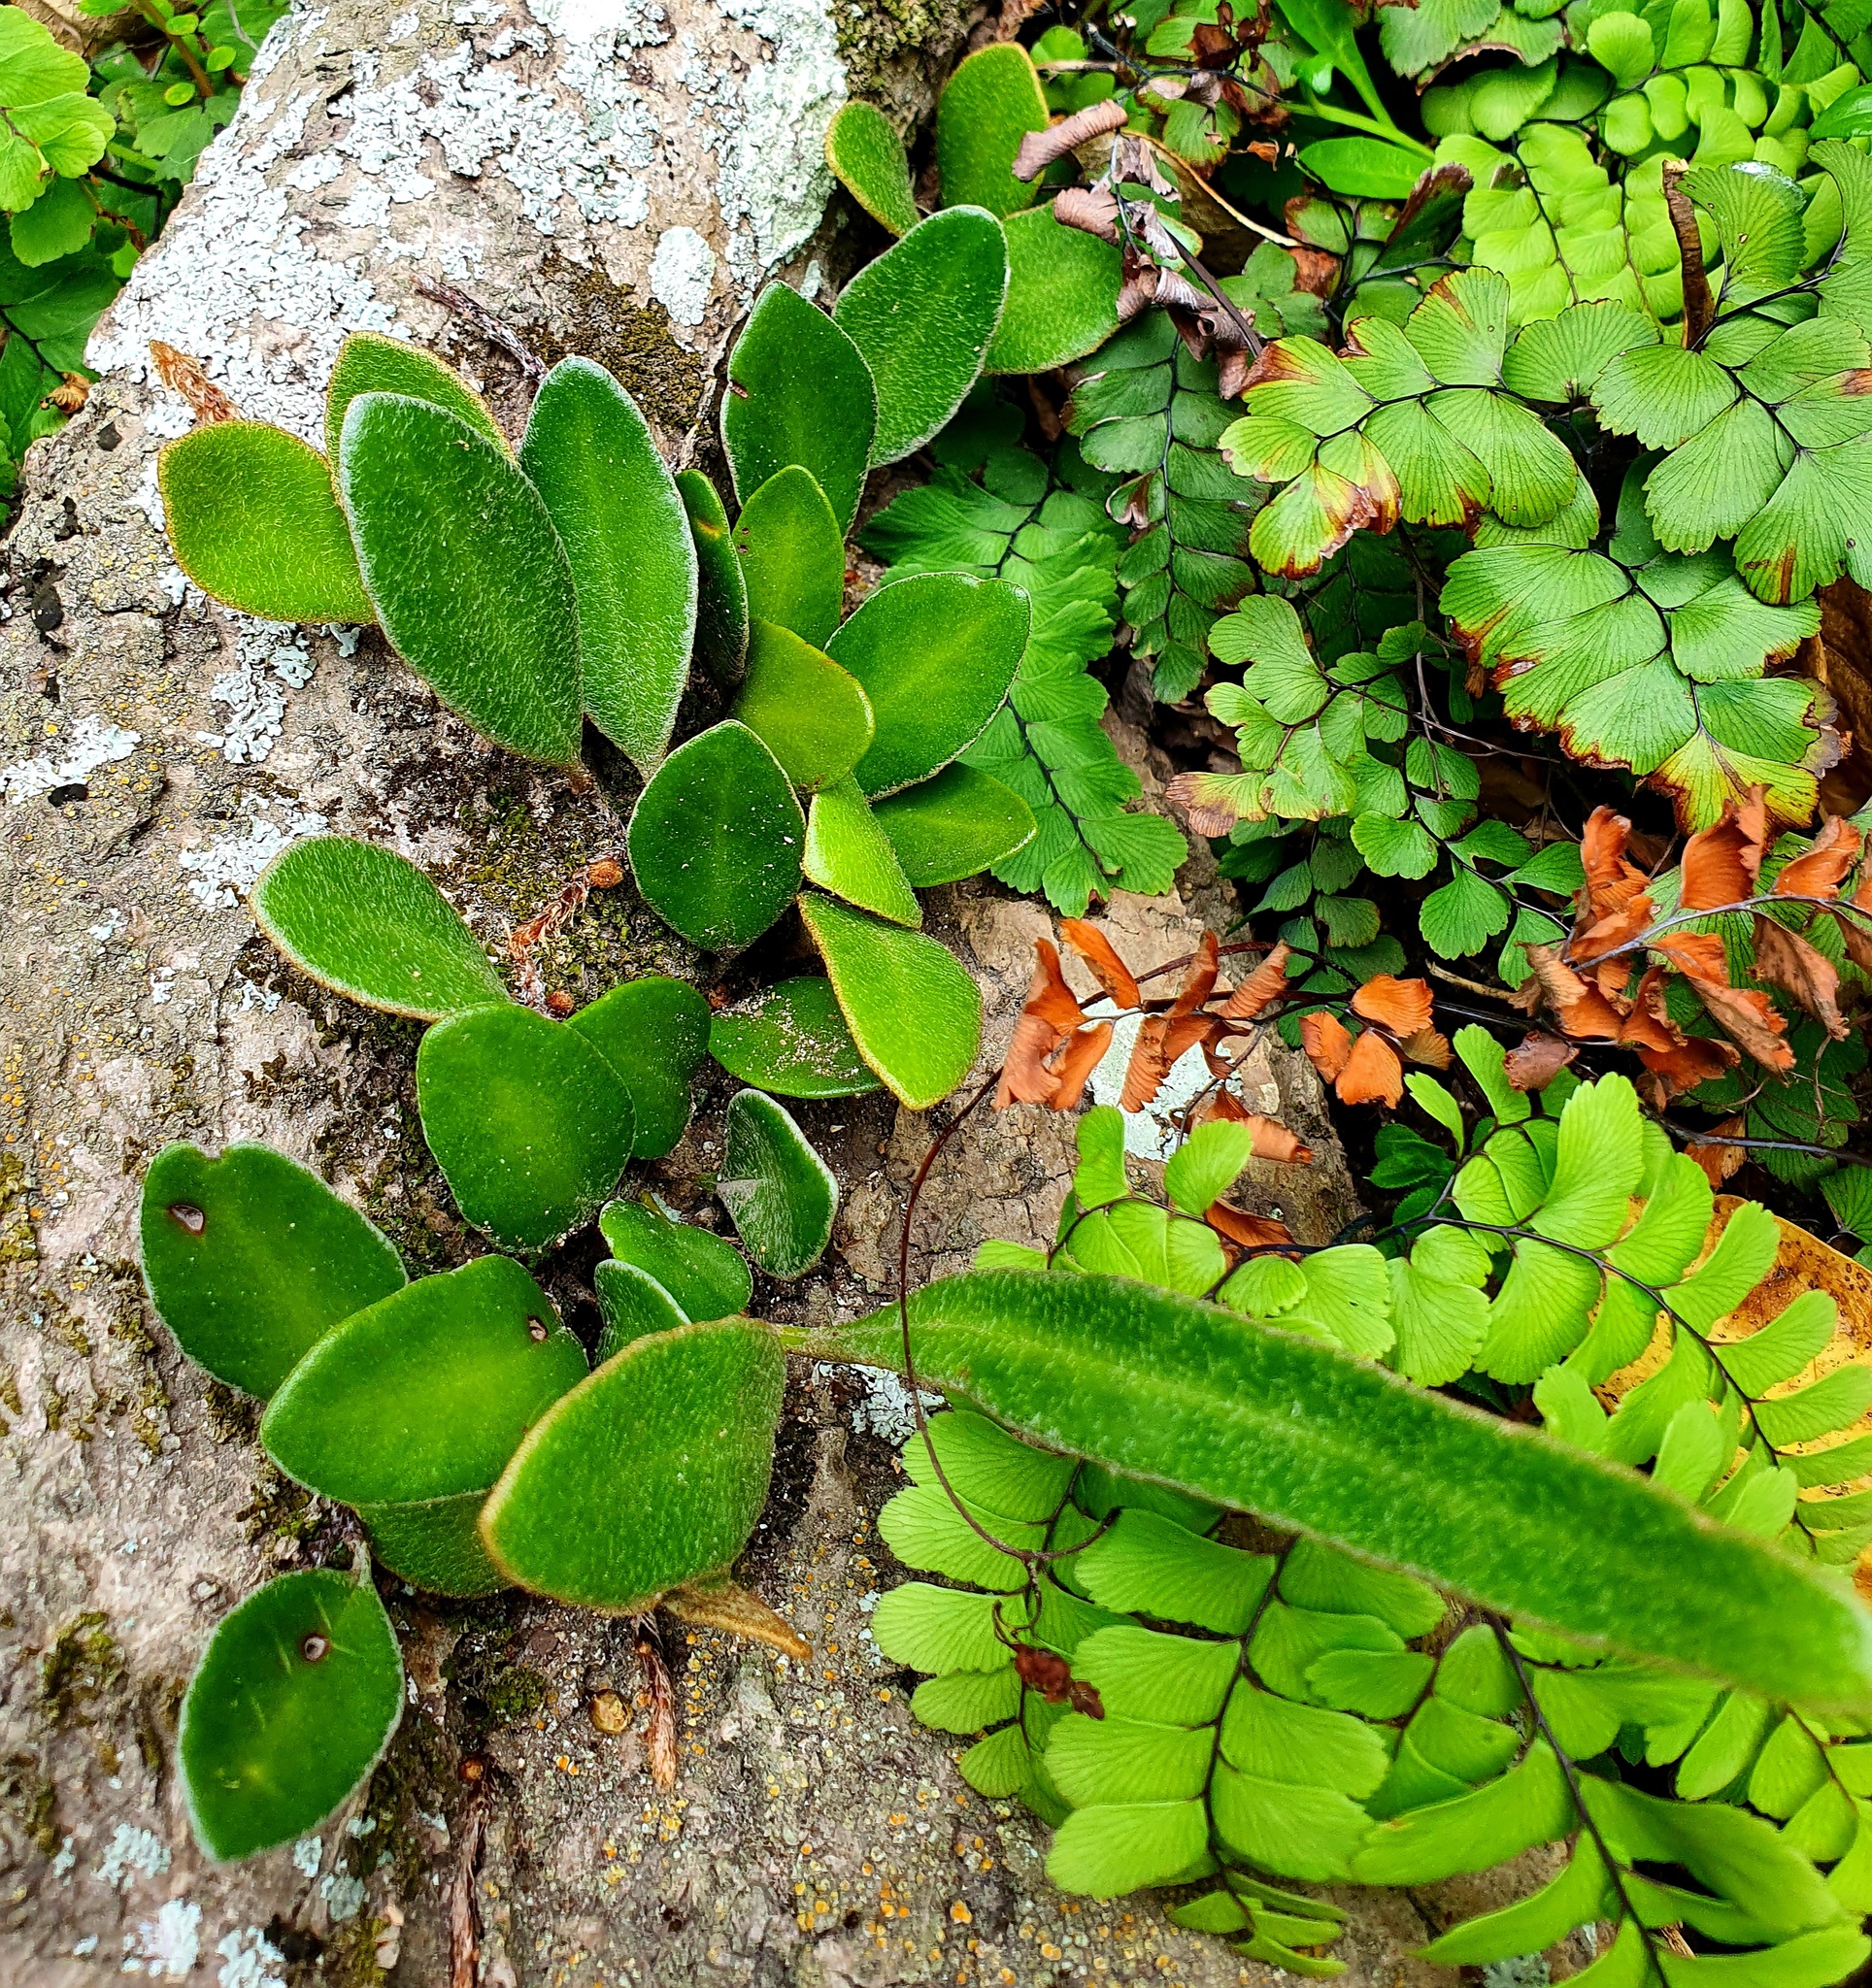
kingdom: Plantae
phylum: Tracheophyta
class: Polypodiopsida
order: Polypodiales
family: Polypodiaceae
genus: Pyrrosia
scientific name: Pyrrosia eleagnifolia
